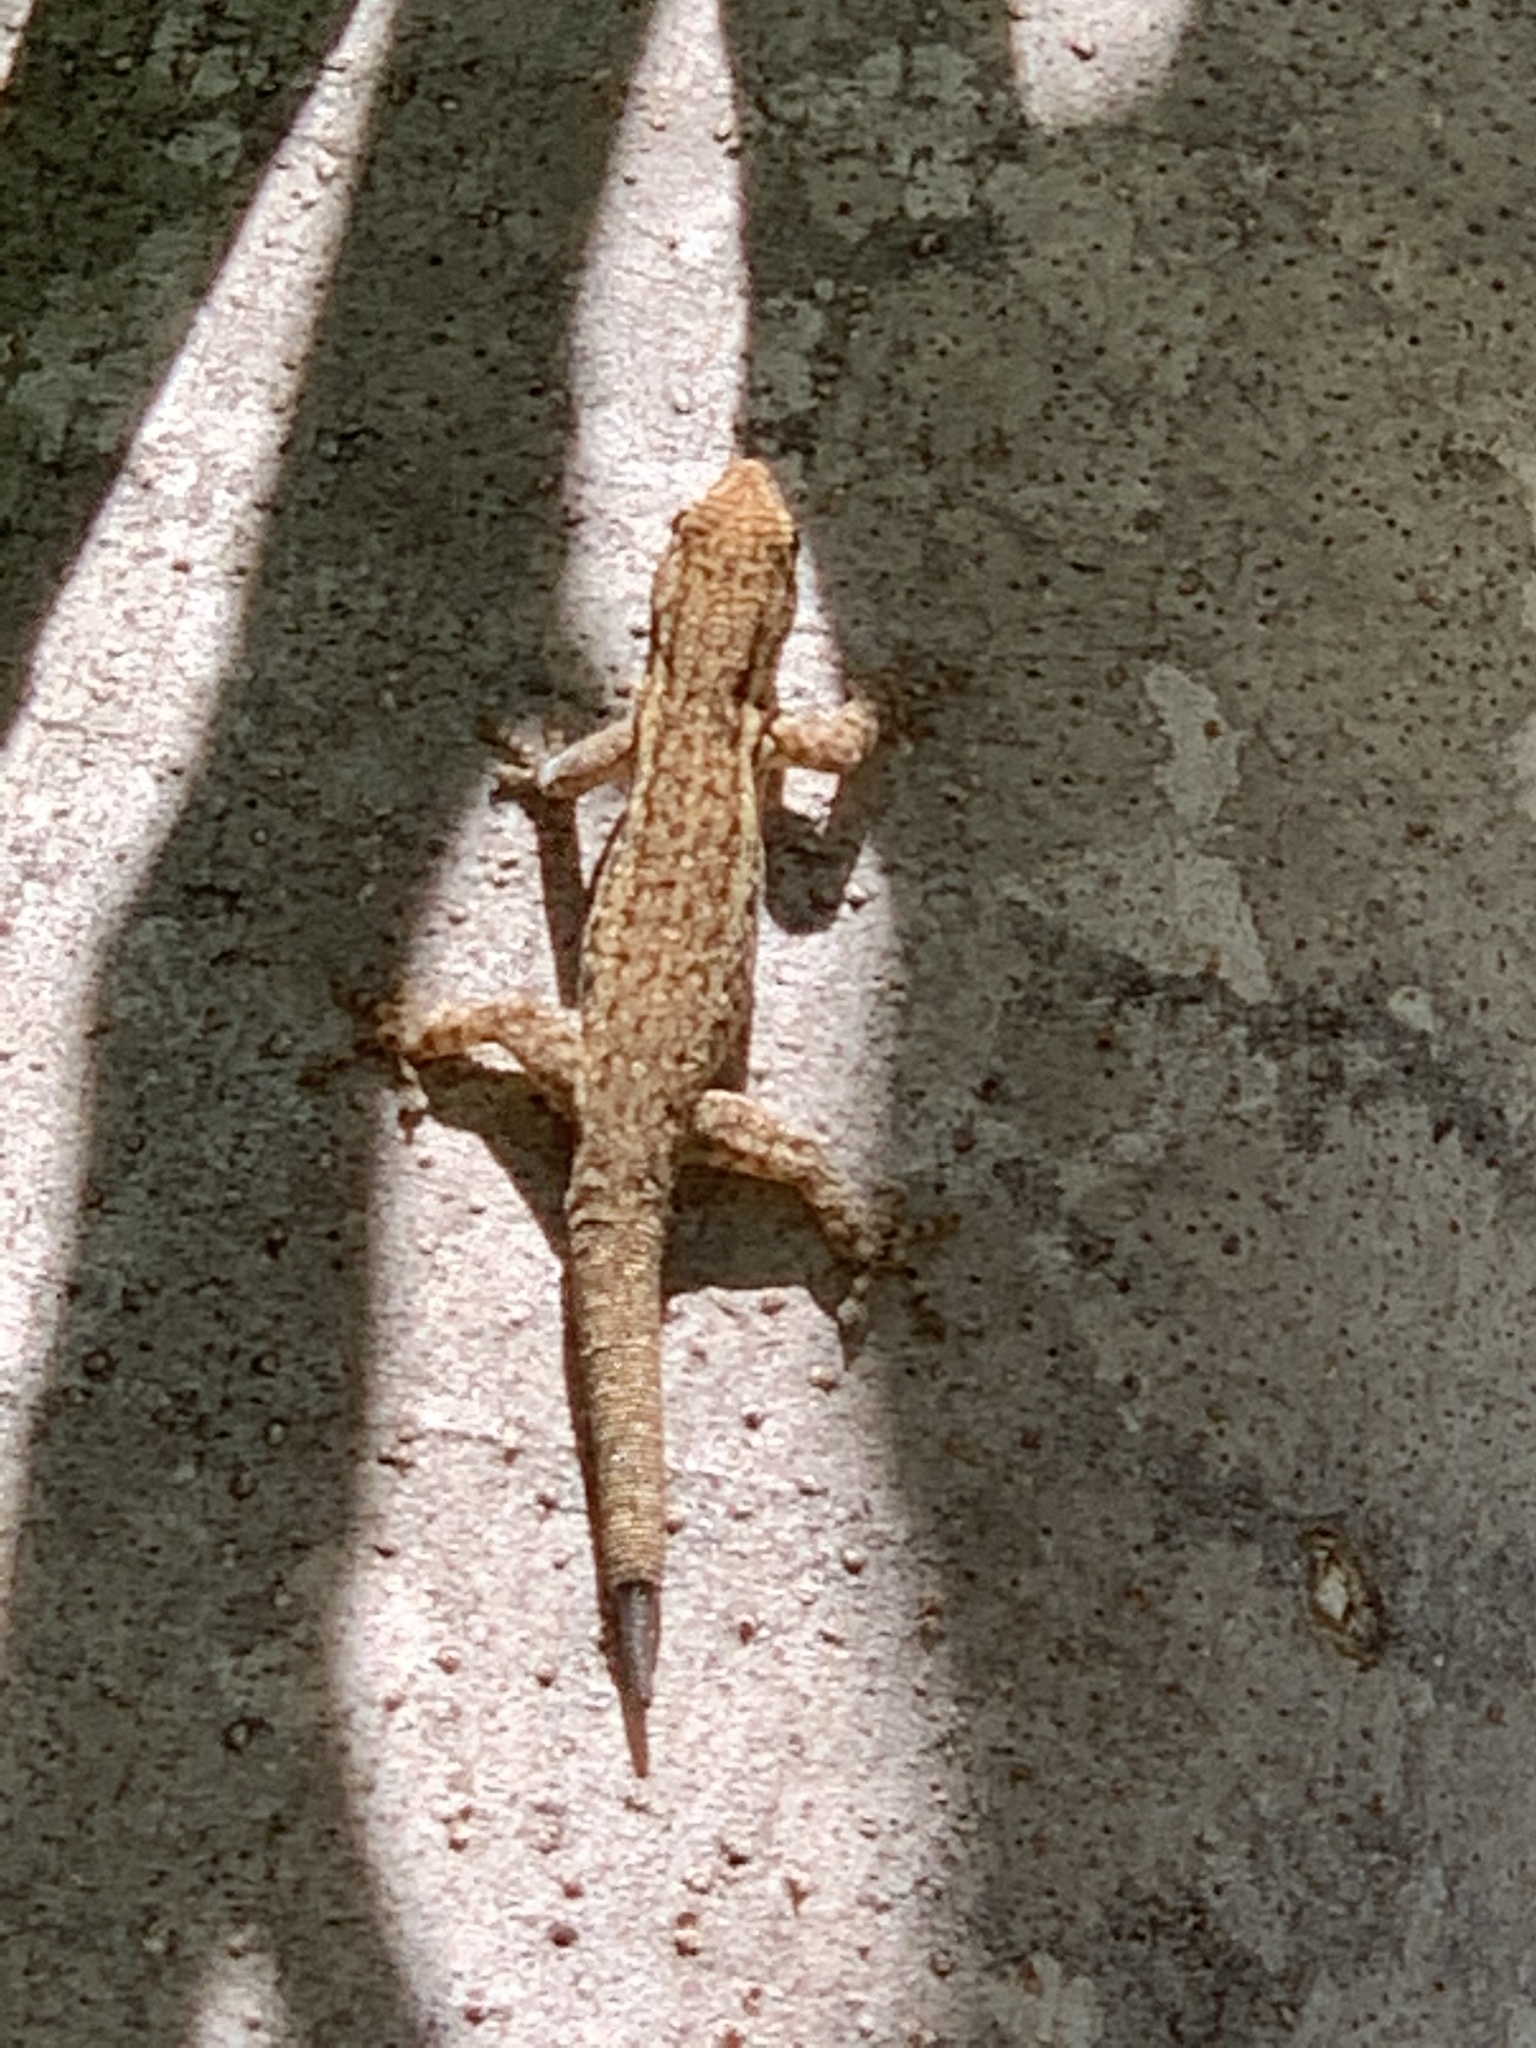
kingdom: Animalia
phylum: Chordata
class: Squamata
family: Gekkonidae
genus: Lygodactylus
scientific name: Lygodactylus capensis
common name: Cape dwarf gecko
